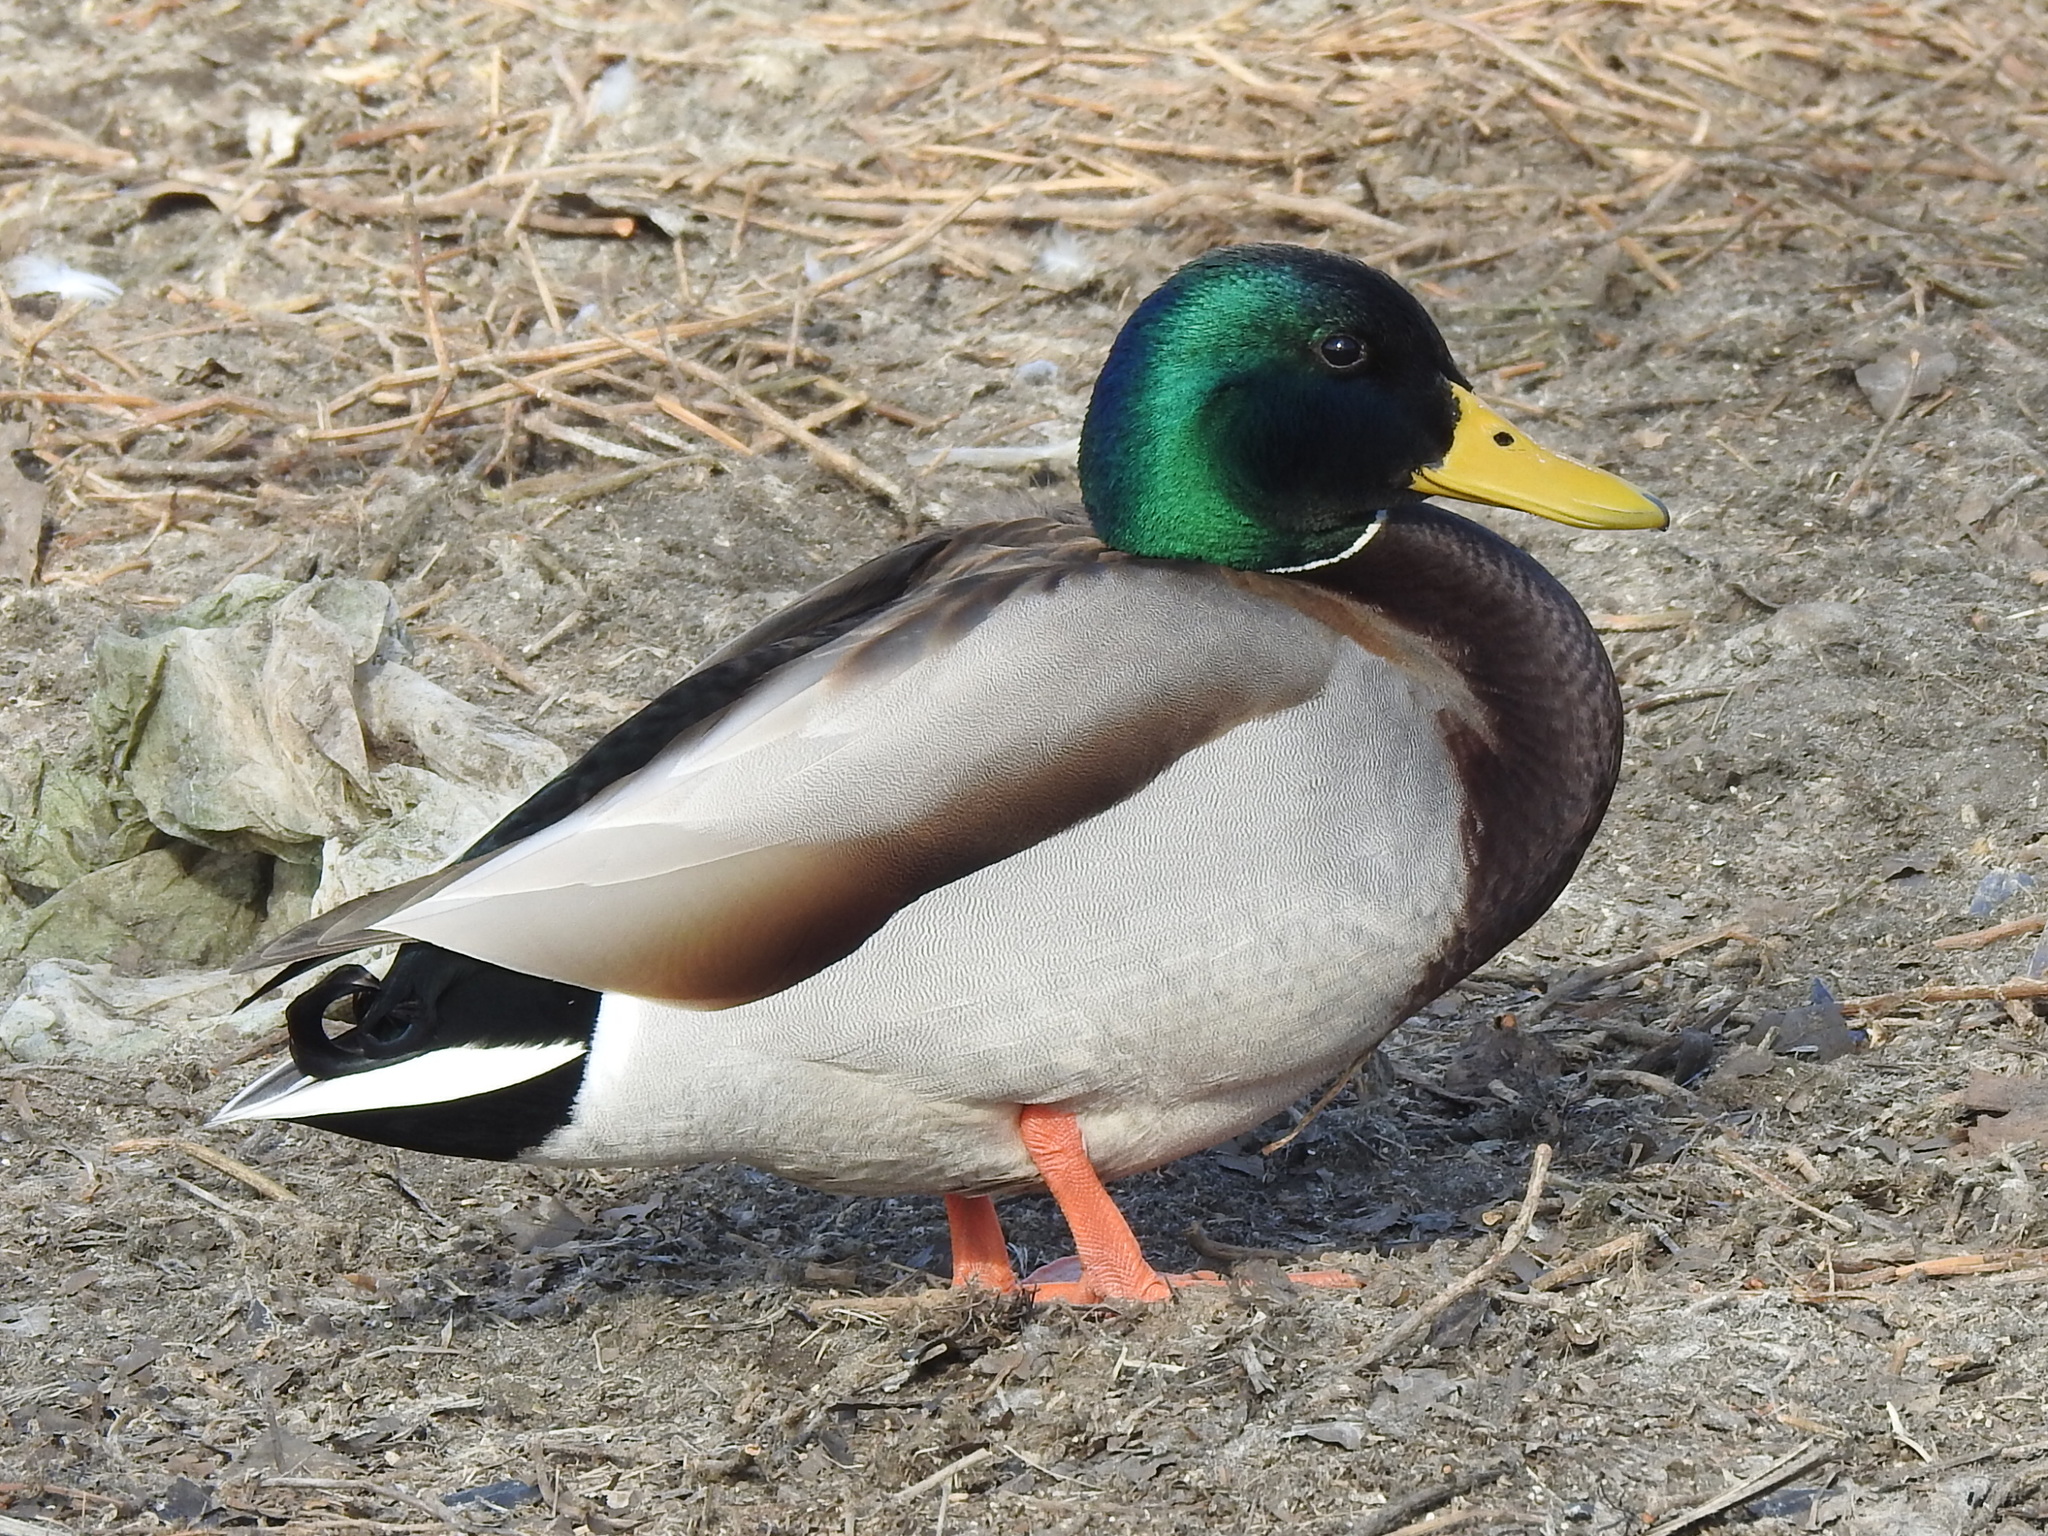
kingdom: Animalia
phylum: Chordata
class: Aves
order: Anseriformes
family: Anatidae
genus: Anas
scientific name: Anas platyrhynchos
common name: Mallard
